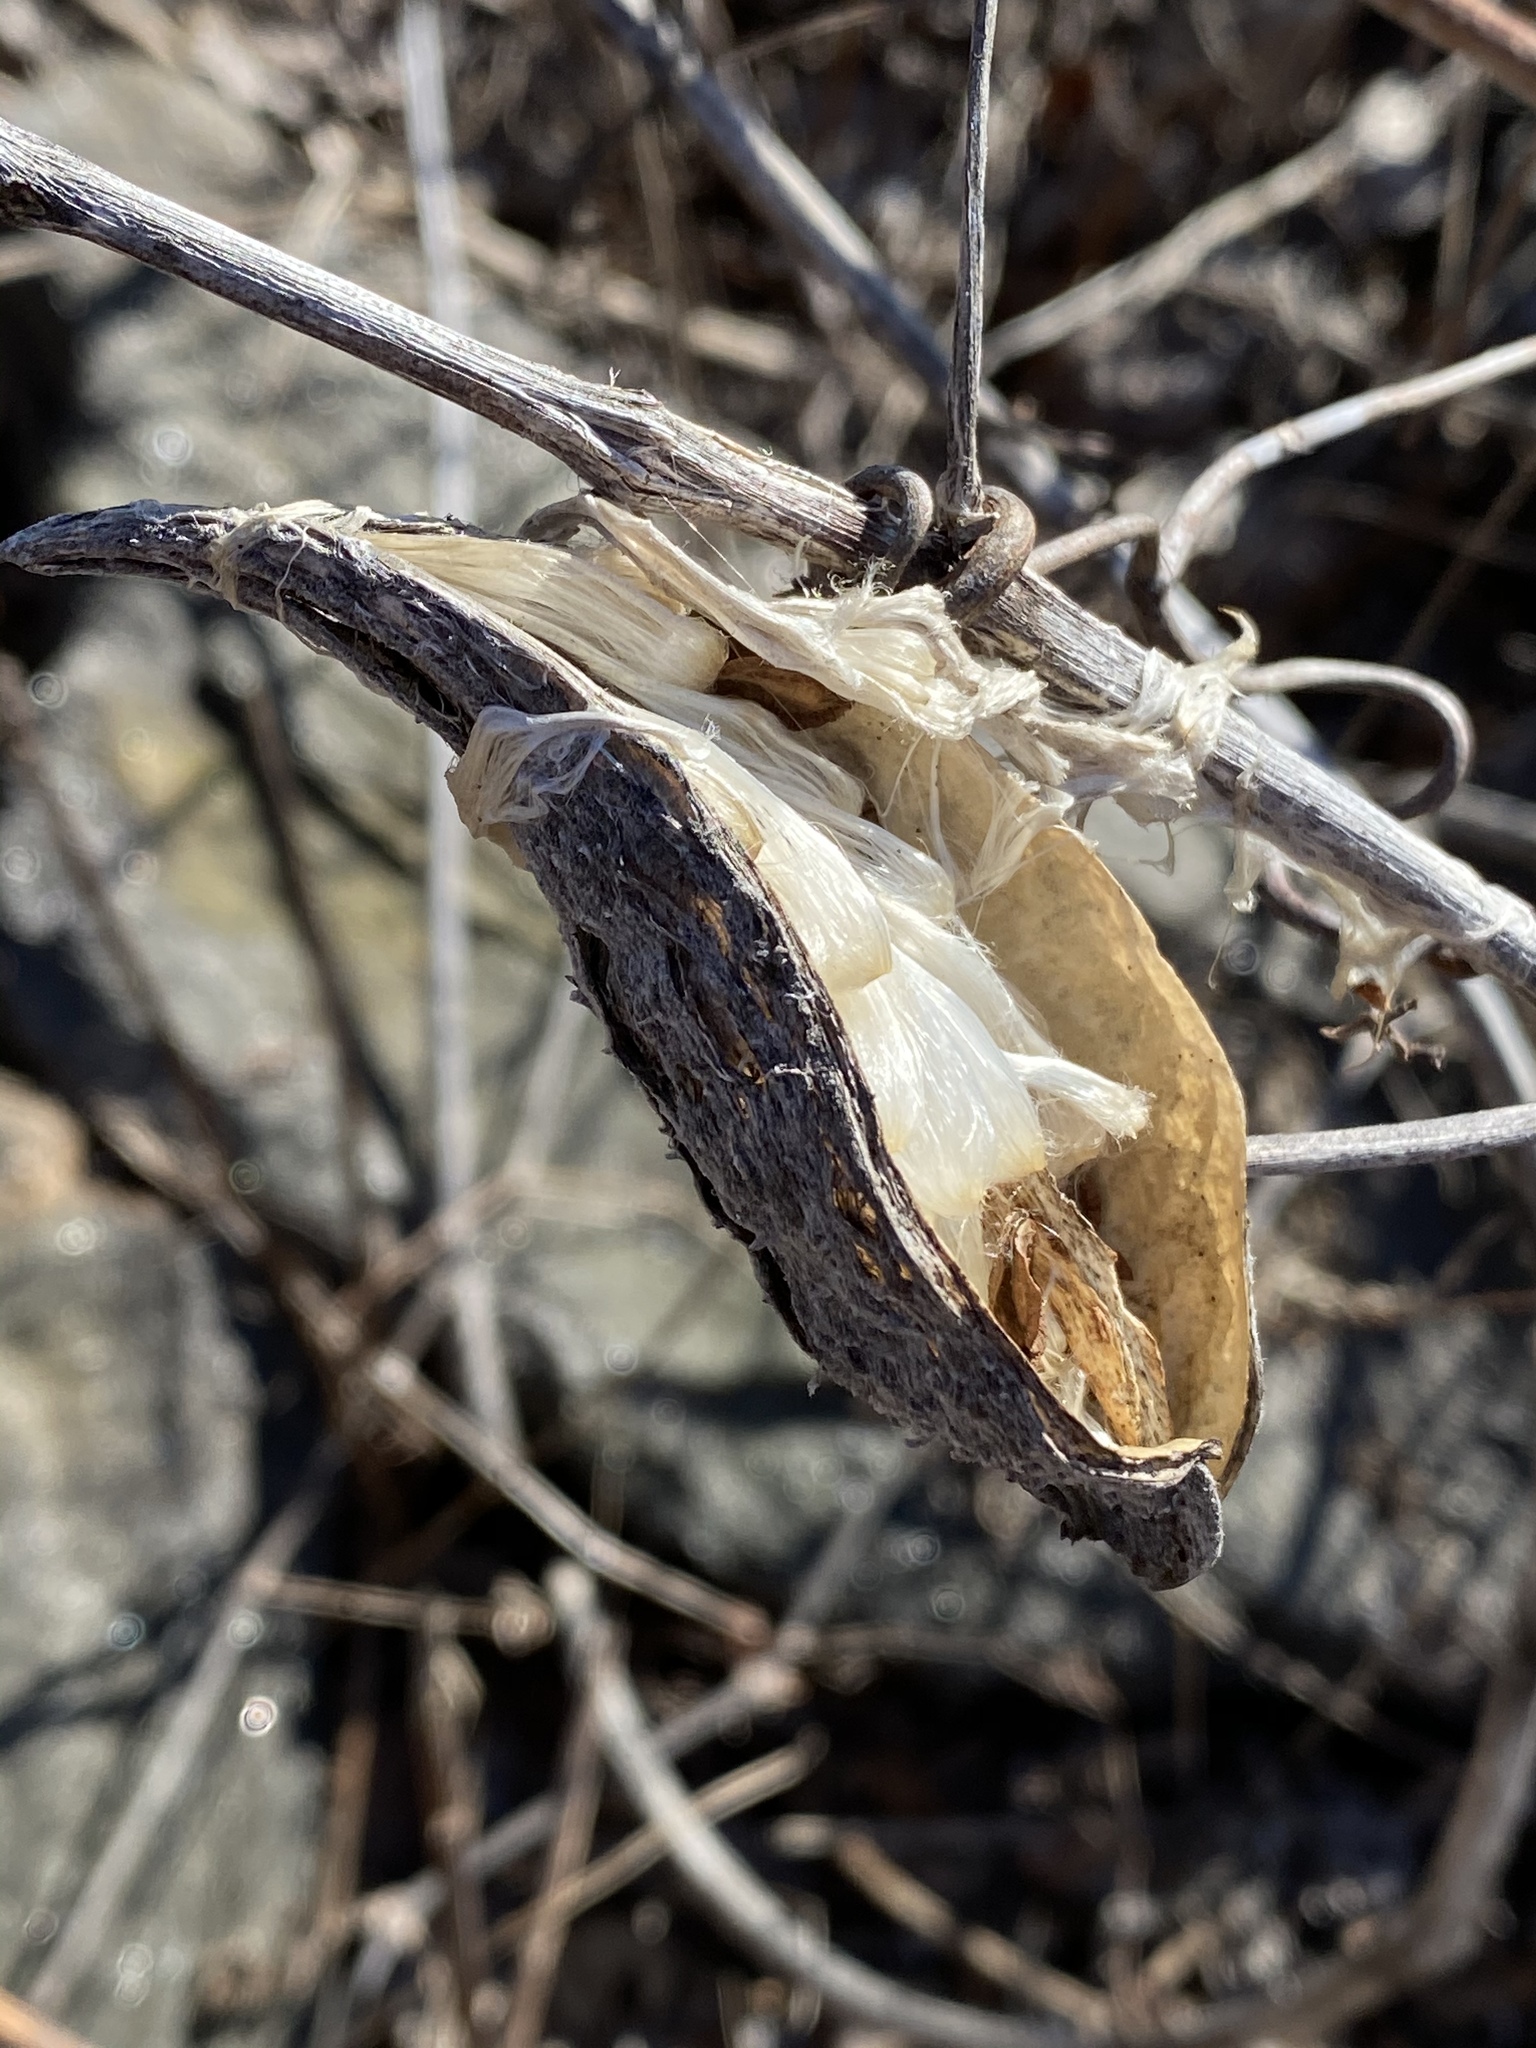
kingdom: Plantae
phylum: Tracheophyta
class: Magnoliopsida
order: Gentianales
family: Apocynaceae
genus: Asclepias
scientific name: Asclepias syriaca
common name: Common milkweed
